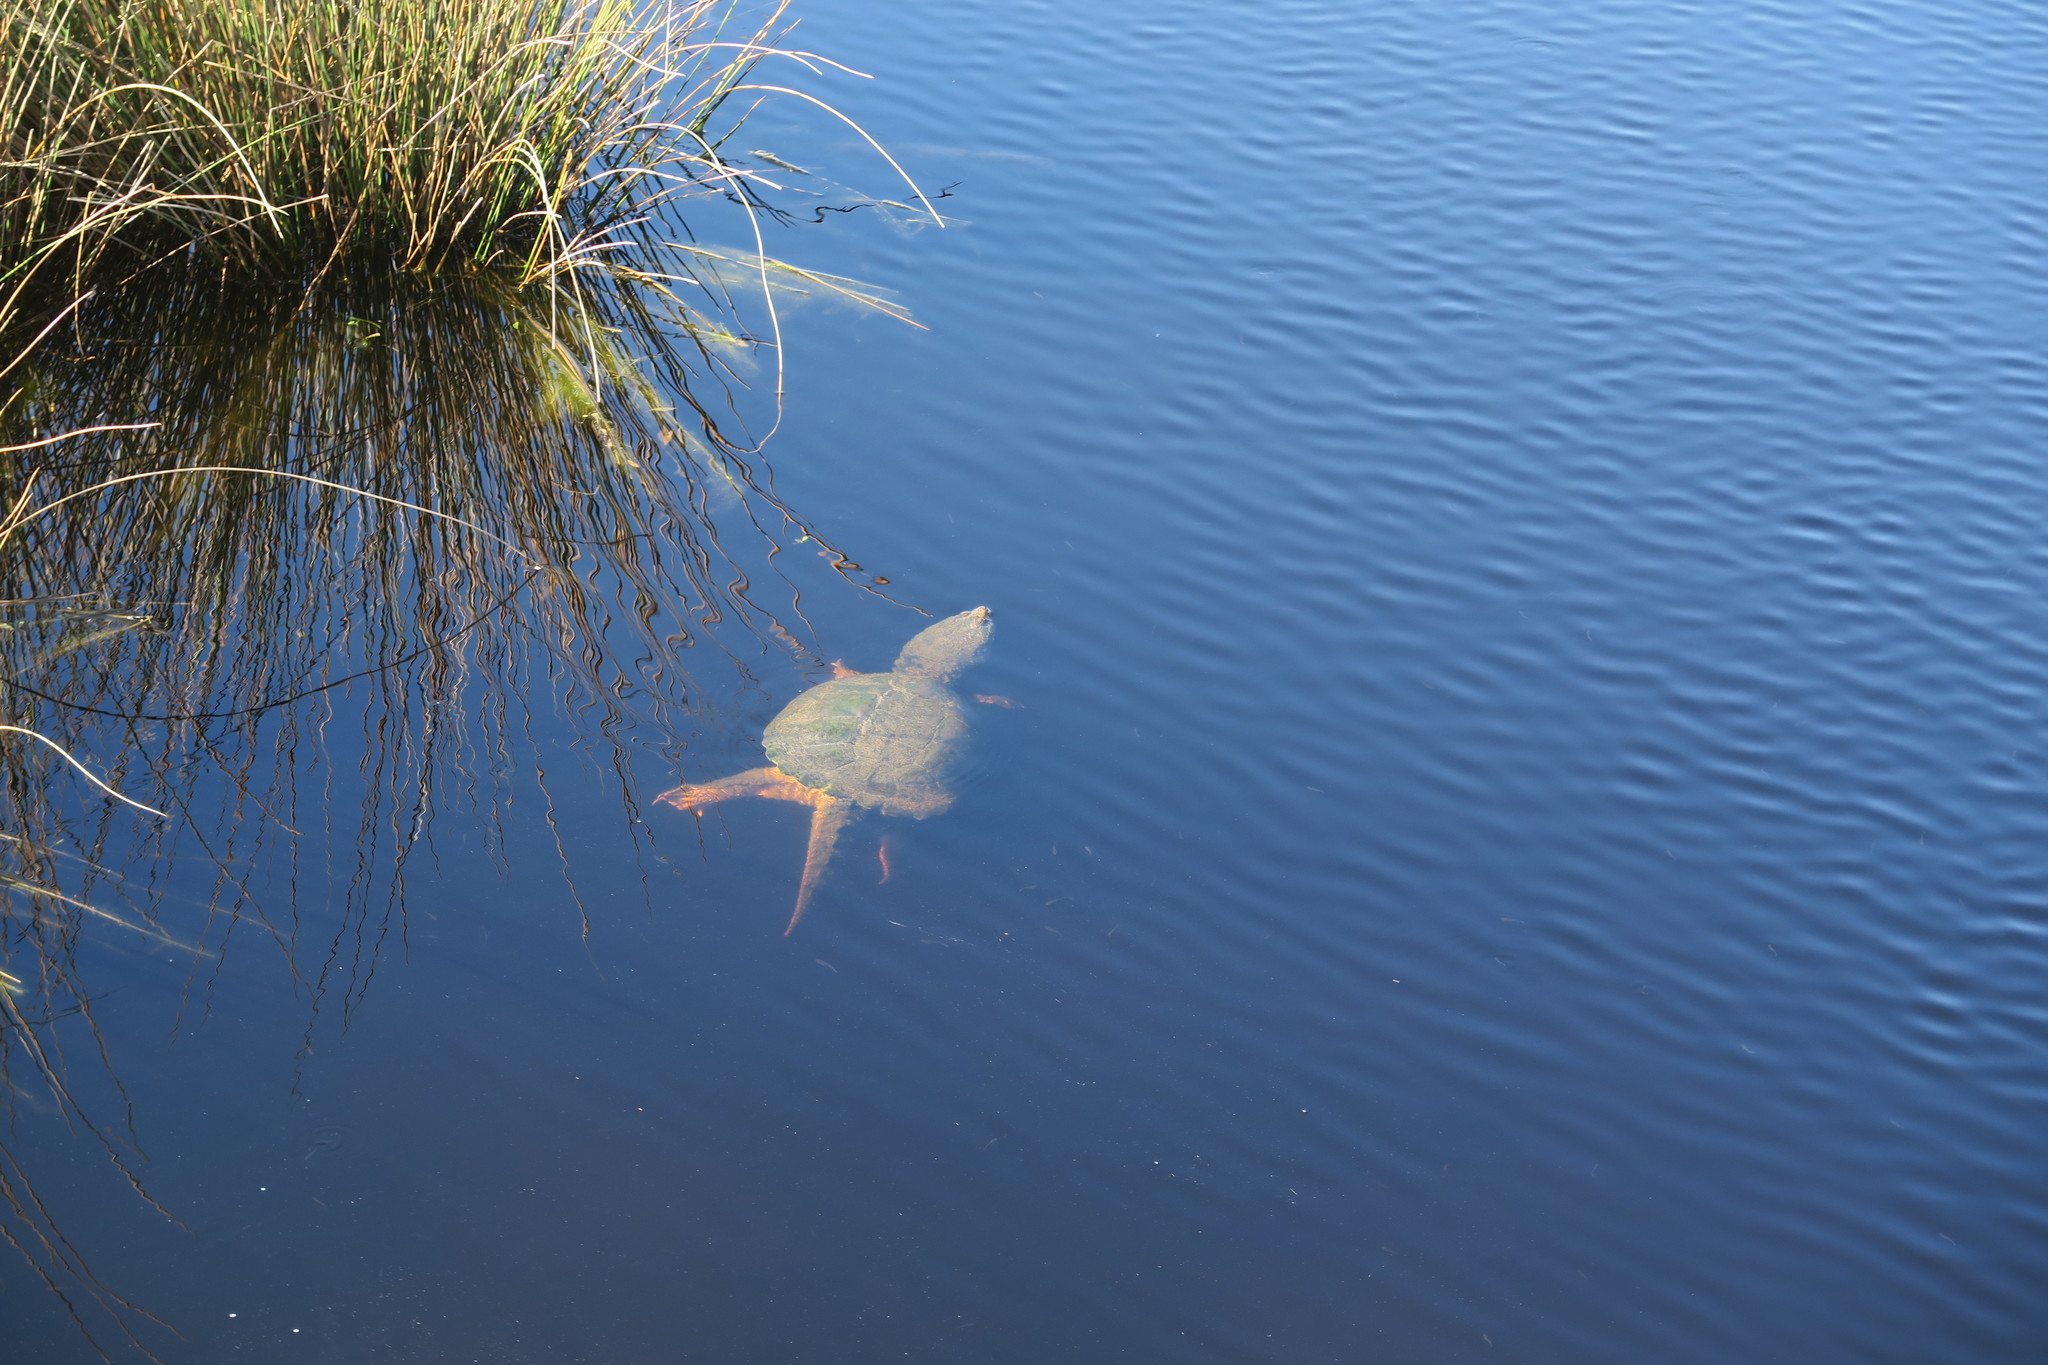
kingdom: Animalia
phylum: Chordata
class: Testudines
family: Chelydridae
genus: Chelydra
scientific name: Chelydra serpentina
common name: Common snapping turtle
